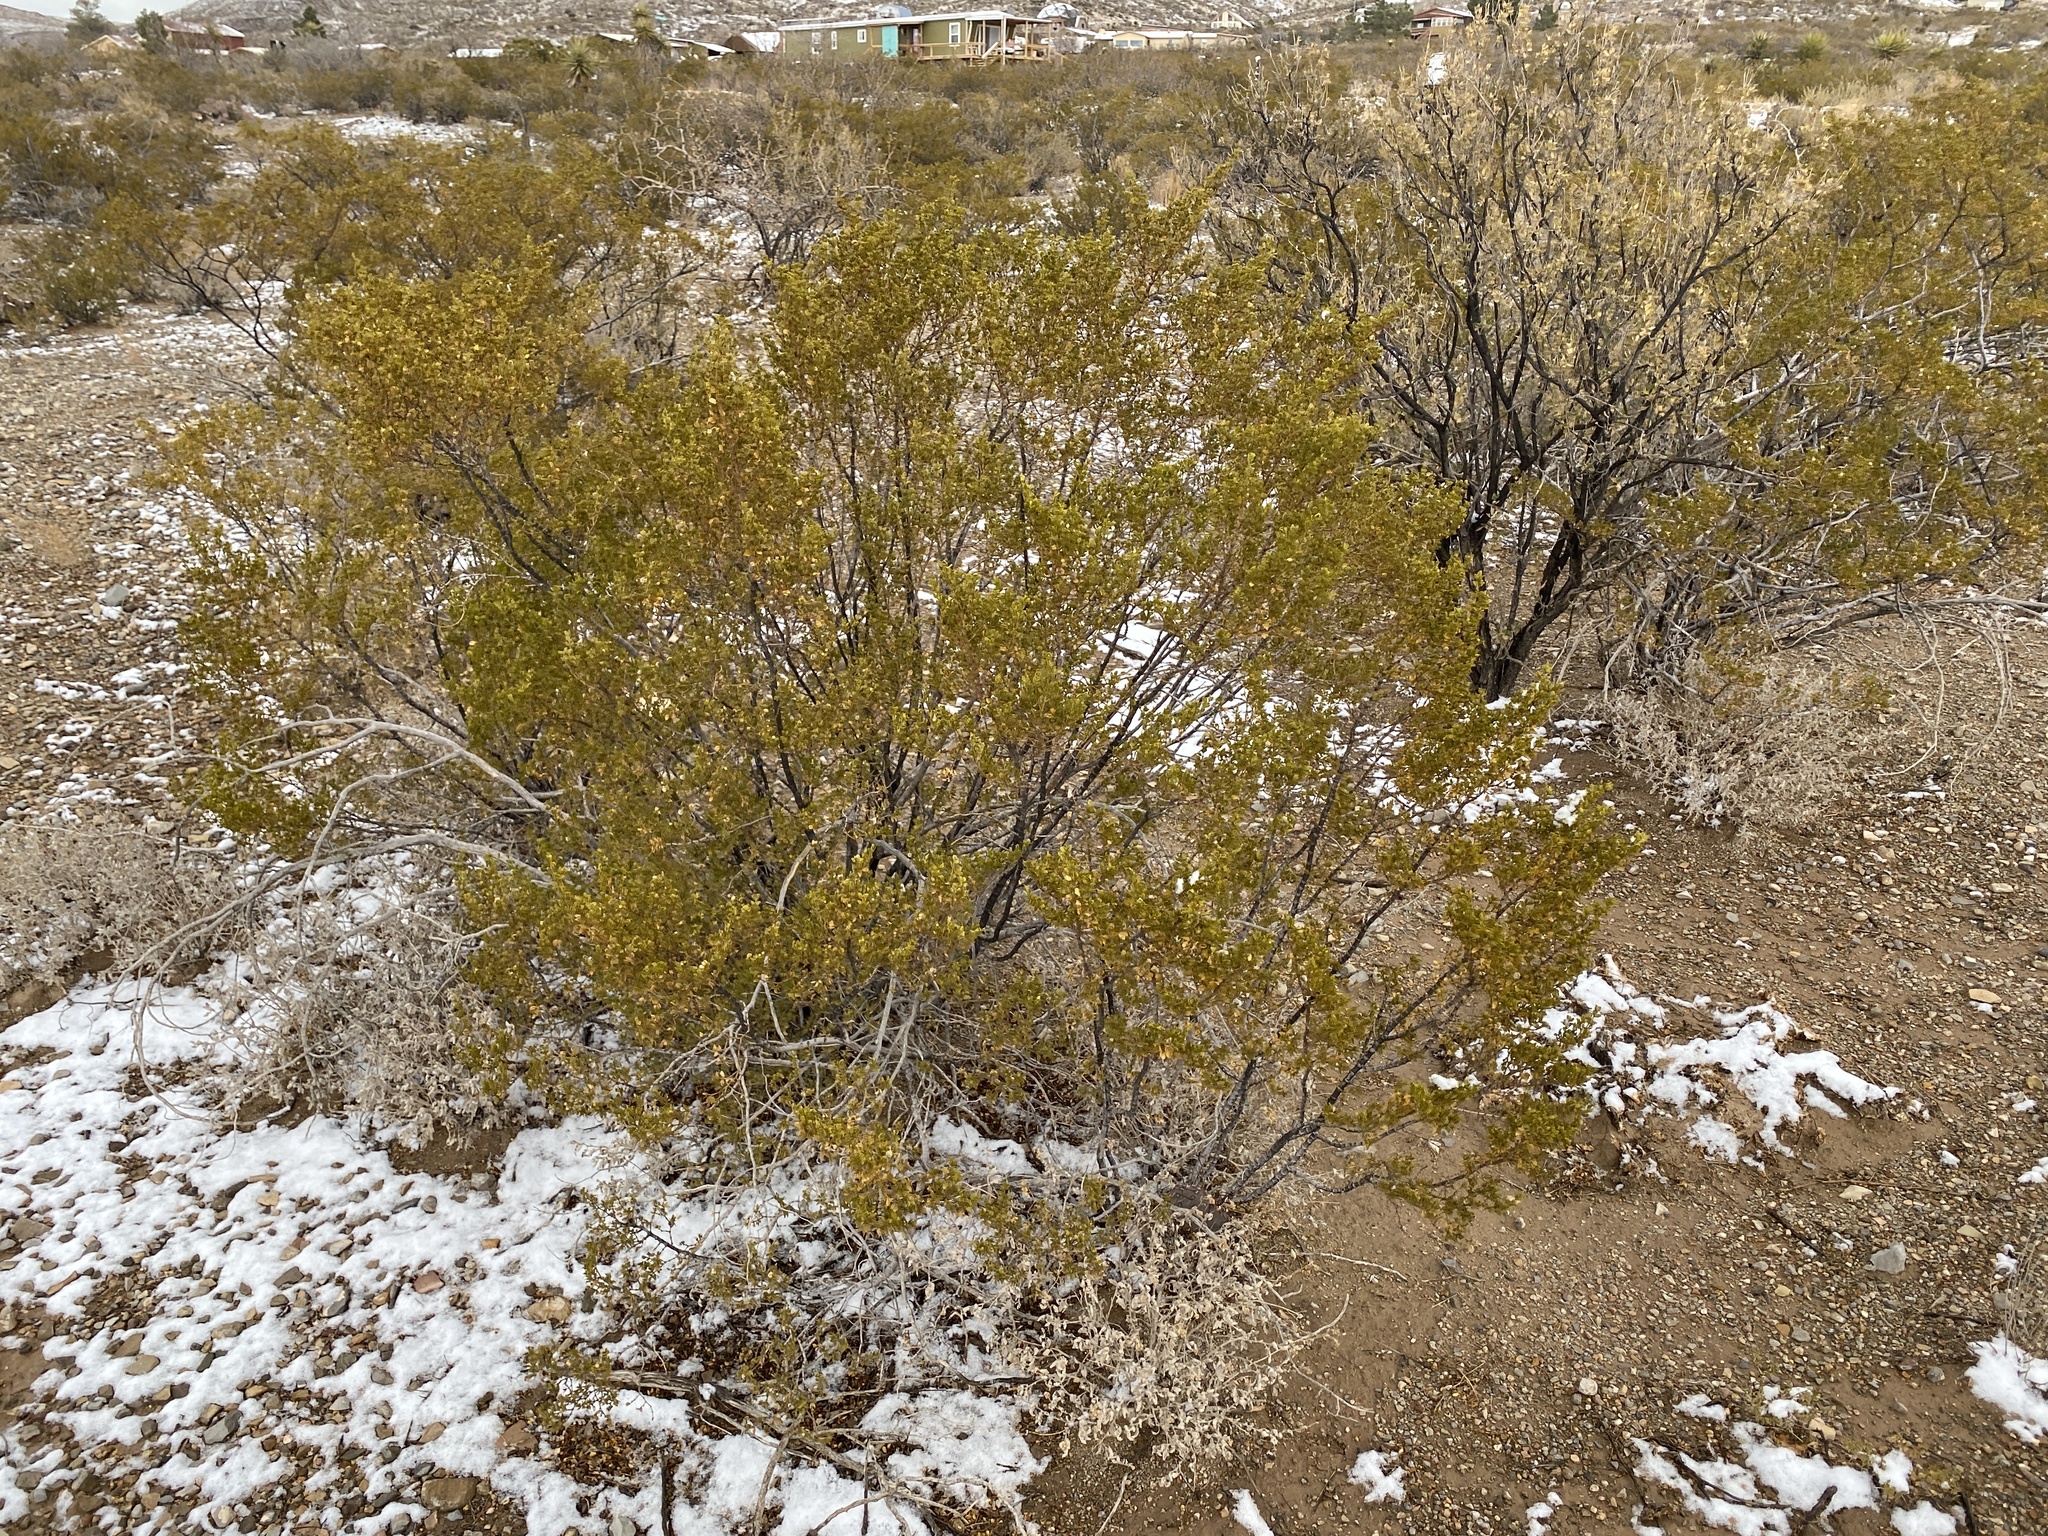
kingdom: Plantae
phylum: Tracheophyta
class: Magnoliopsida
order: Zygophyllales
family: Zygophyllaceae
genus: Larrea
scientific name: Larrea tridentata
